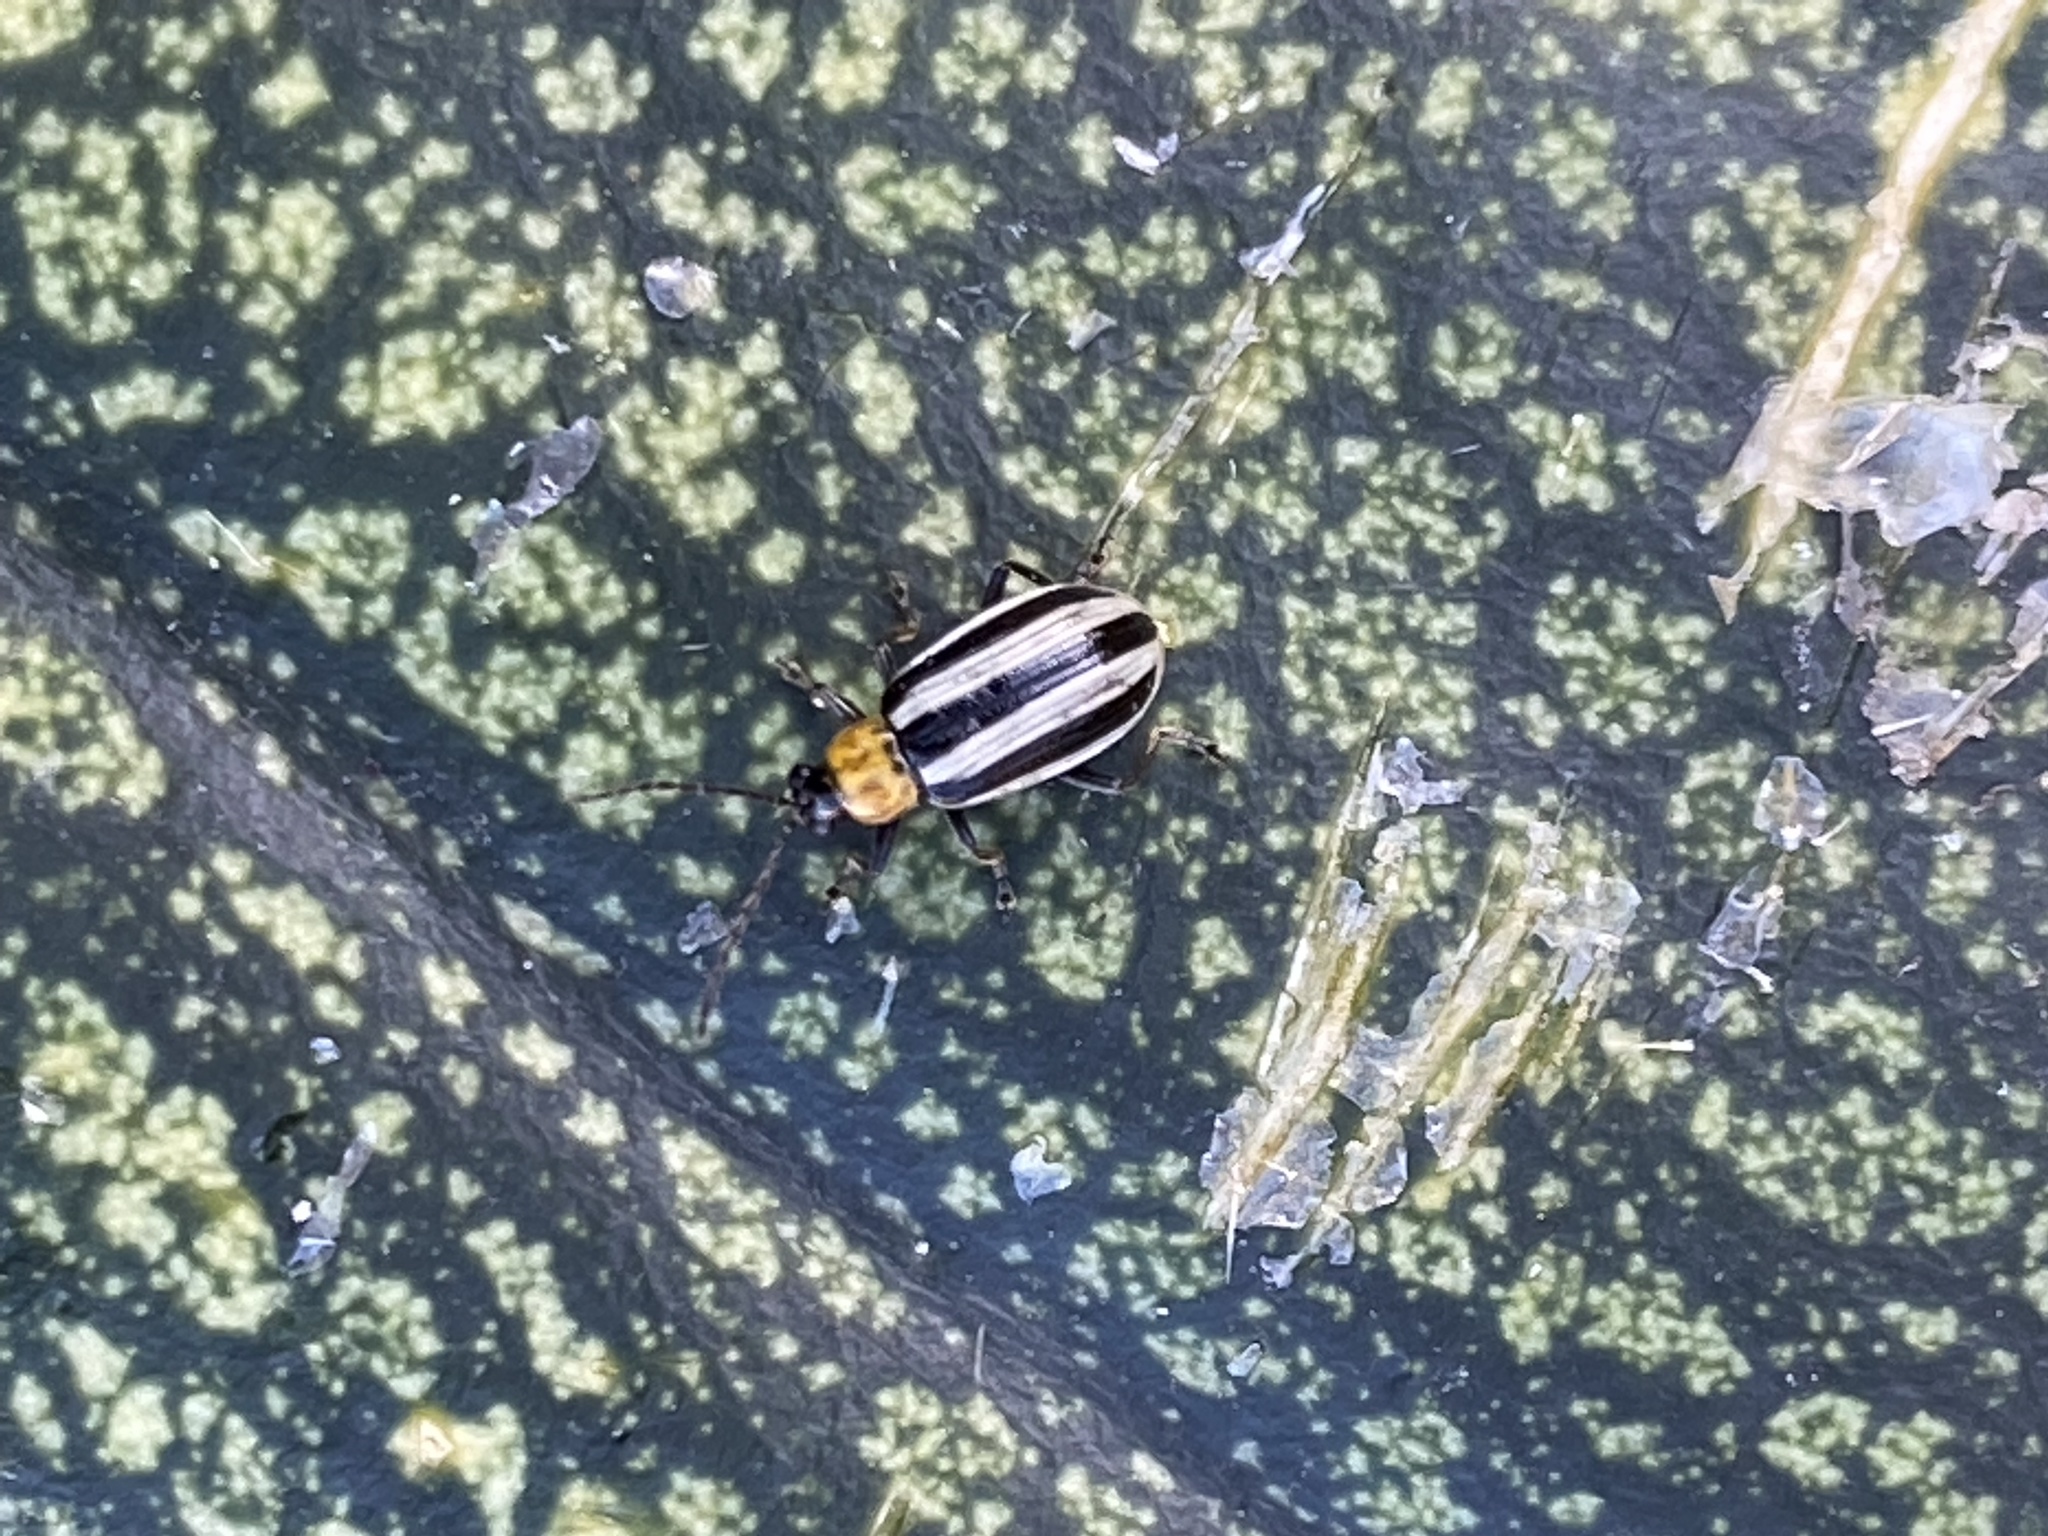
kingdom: Animalia
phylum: Arthropoda
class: Insecta
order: Coleoptera
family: Chrysomelidae
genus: Acalymma
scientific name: Acalymma trivittatum
